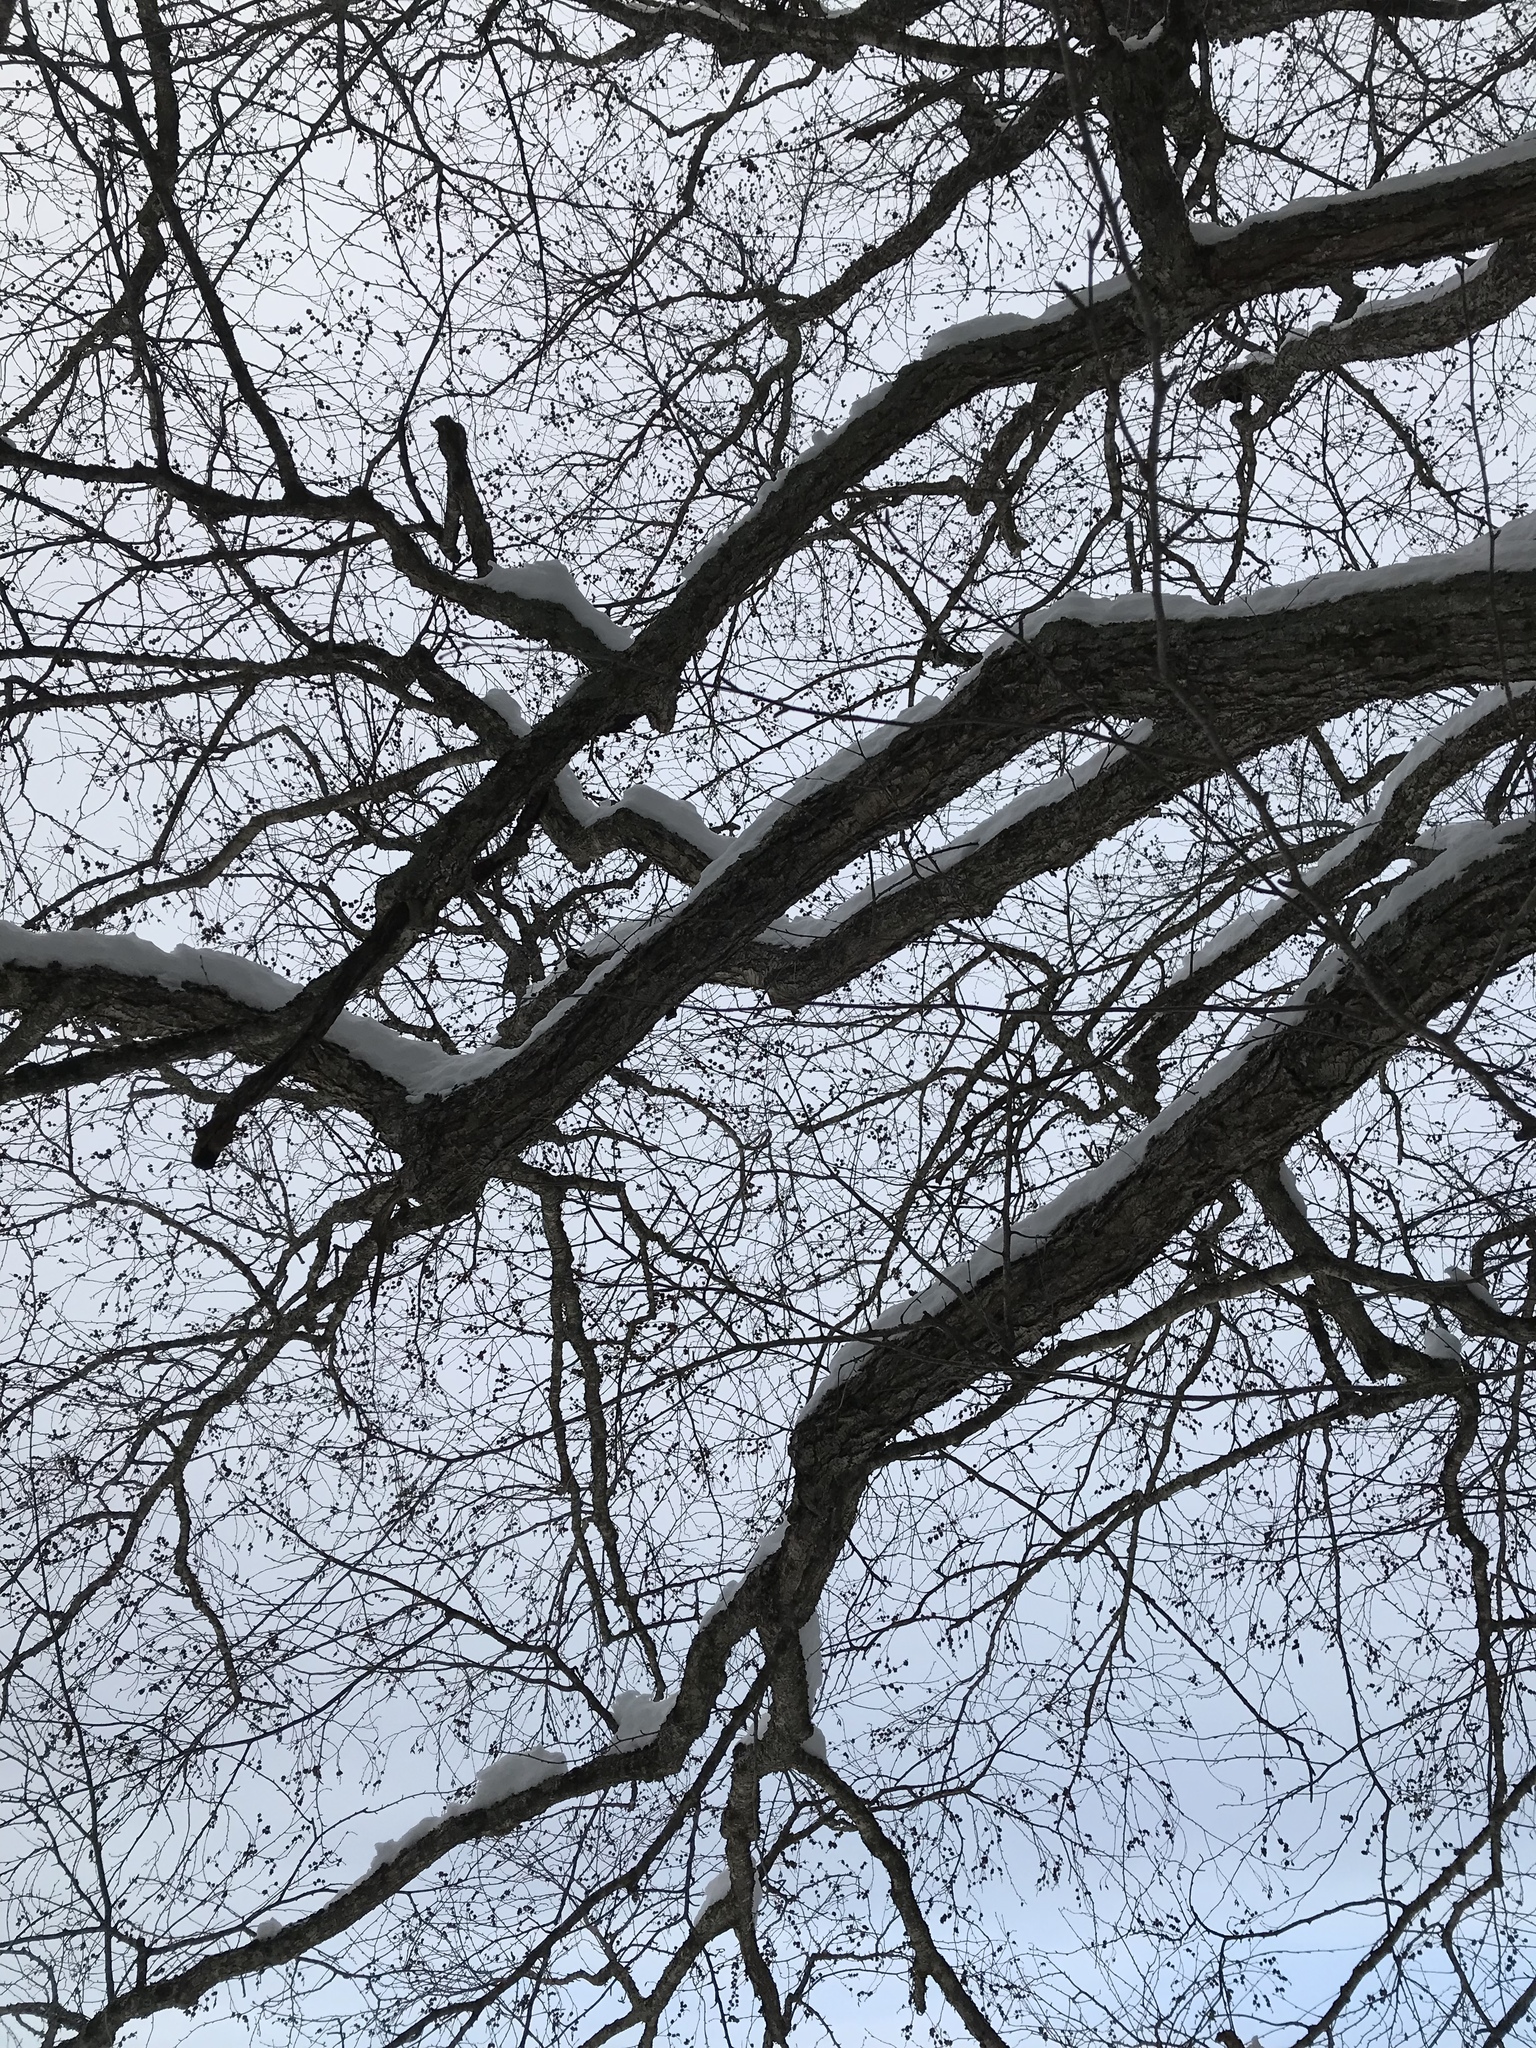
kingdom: Plantae
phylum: Tracheophyta
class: Magnoliopsida
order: Fagales
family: Betulaceae
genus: Betula
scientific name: Betula alleghaniensis
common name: Yellow birch
